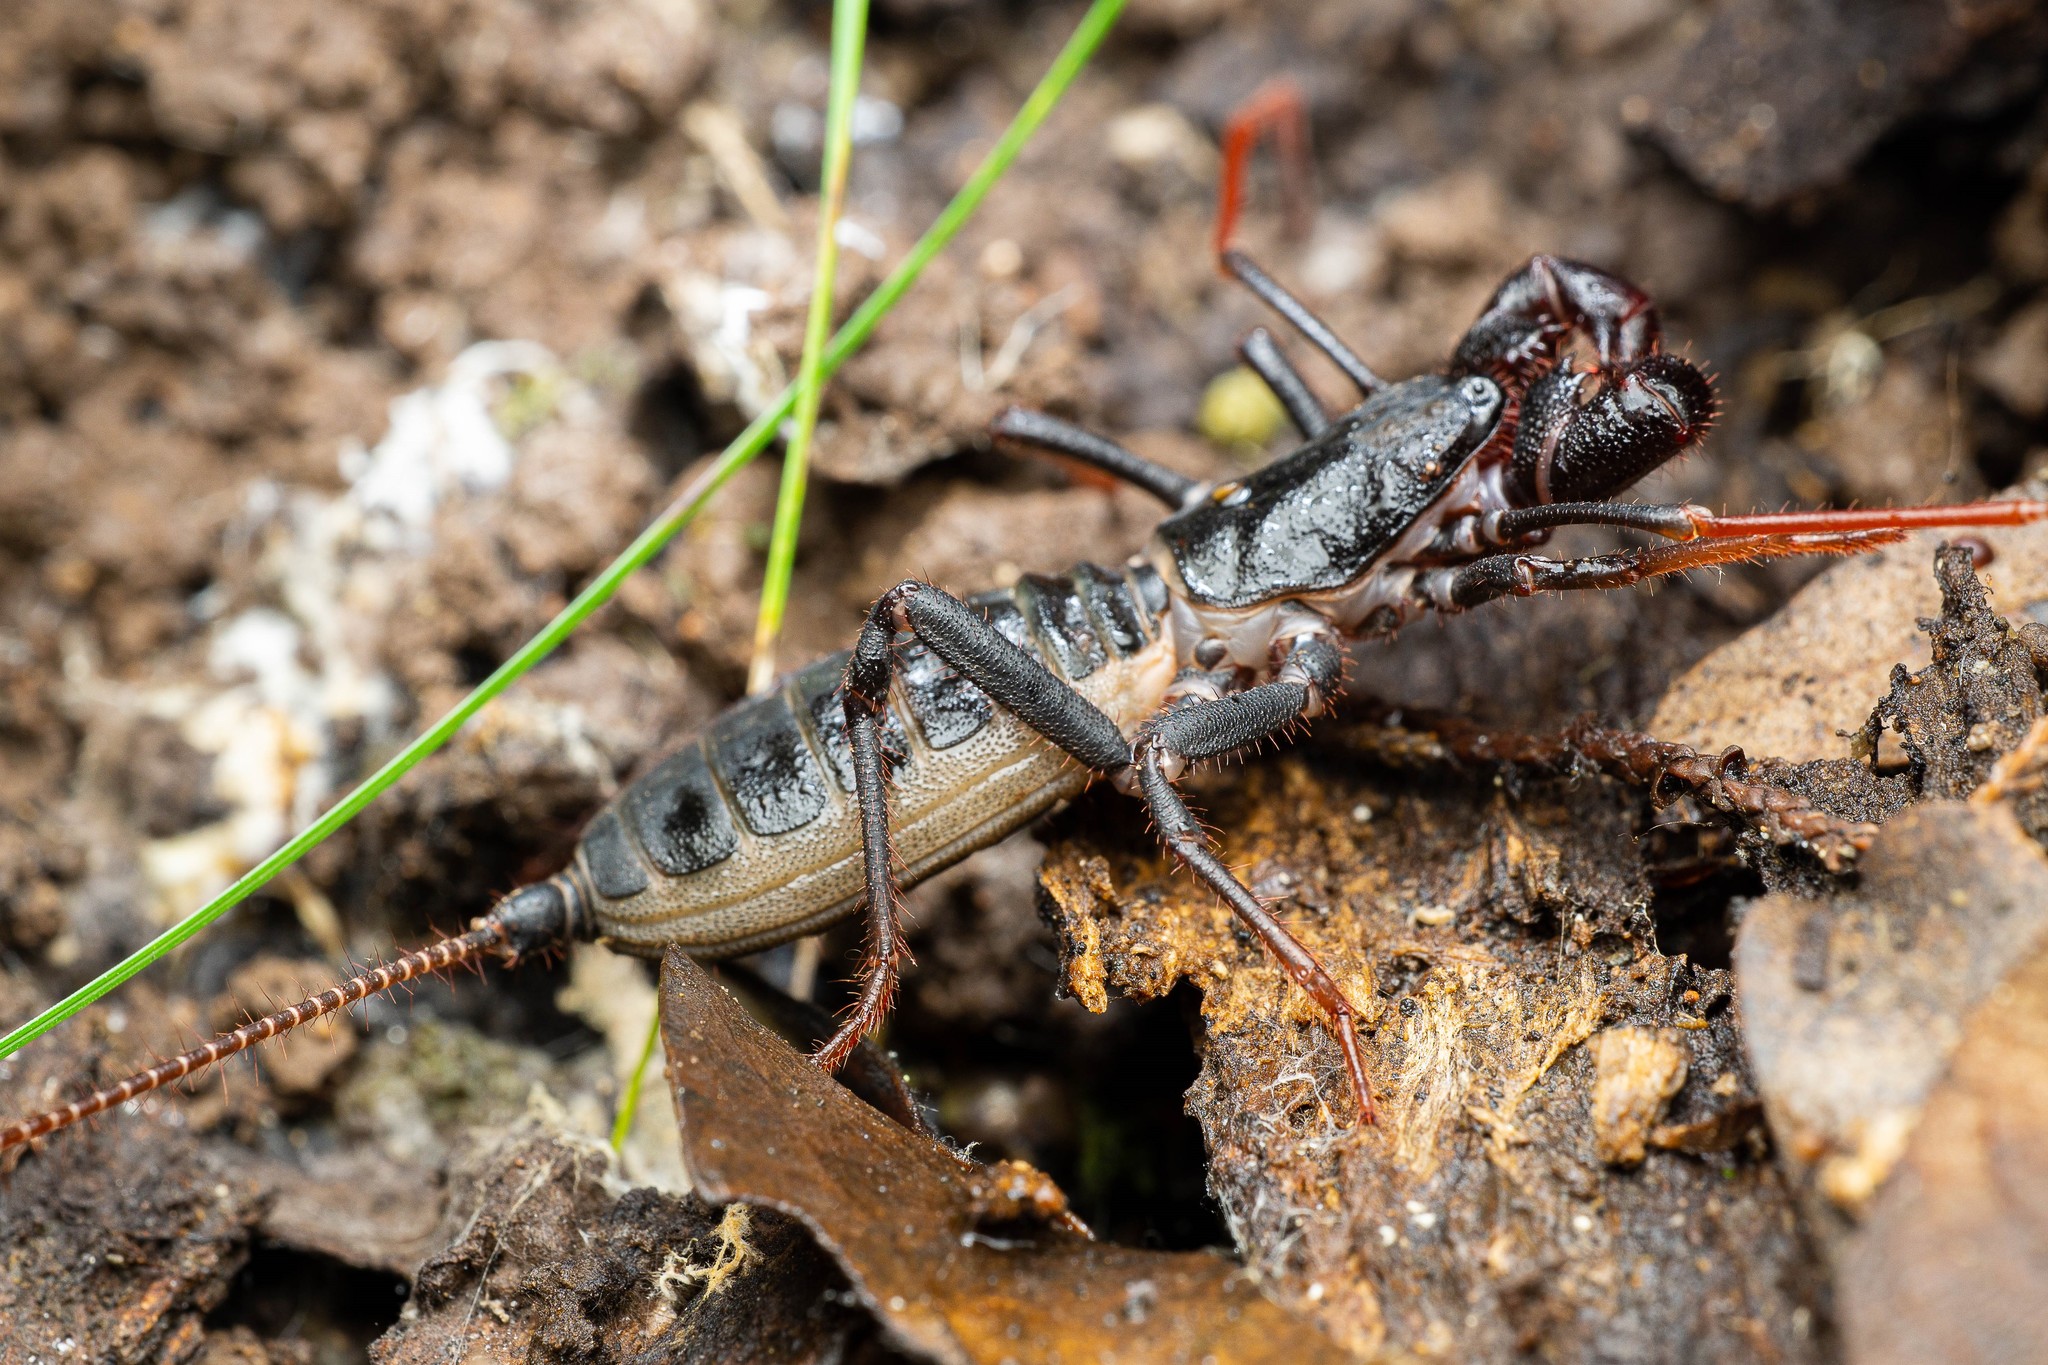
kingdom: Animalia
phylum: Arthropoda
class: Arachnida
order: Uropygi
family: Thelyphonidae
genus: Mastigoproctus
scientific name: Mastigoproctus tohono
